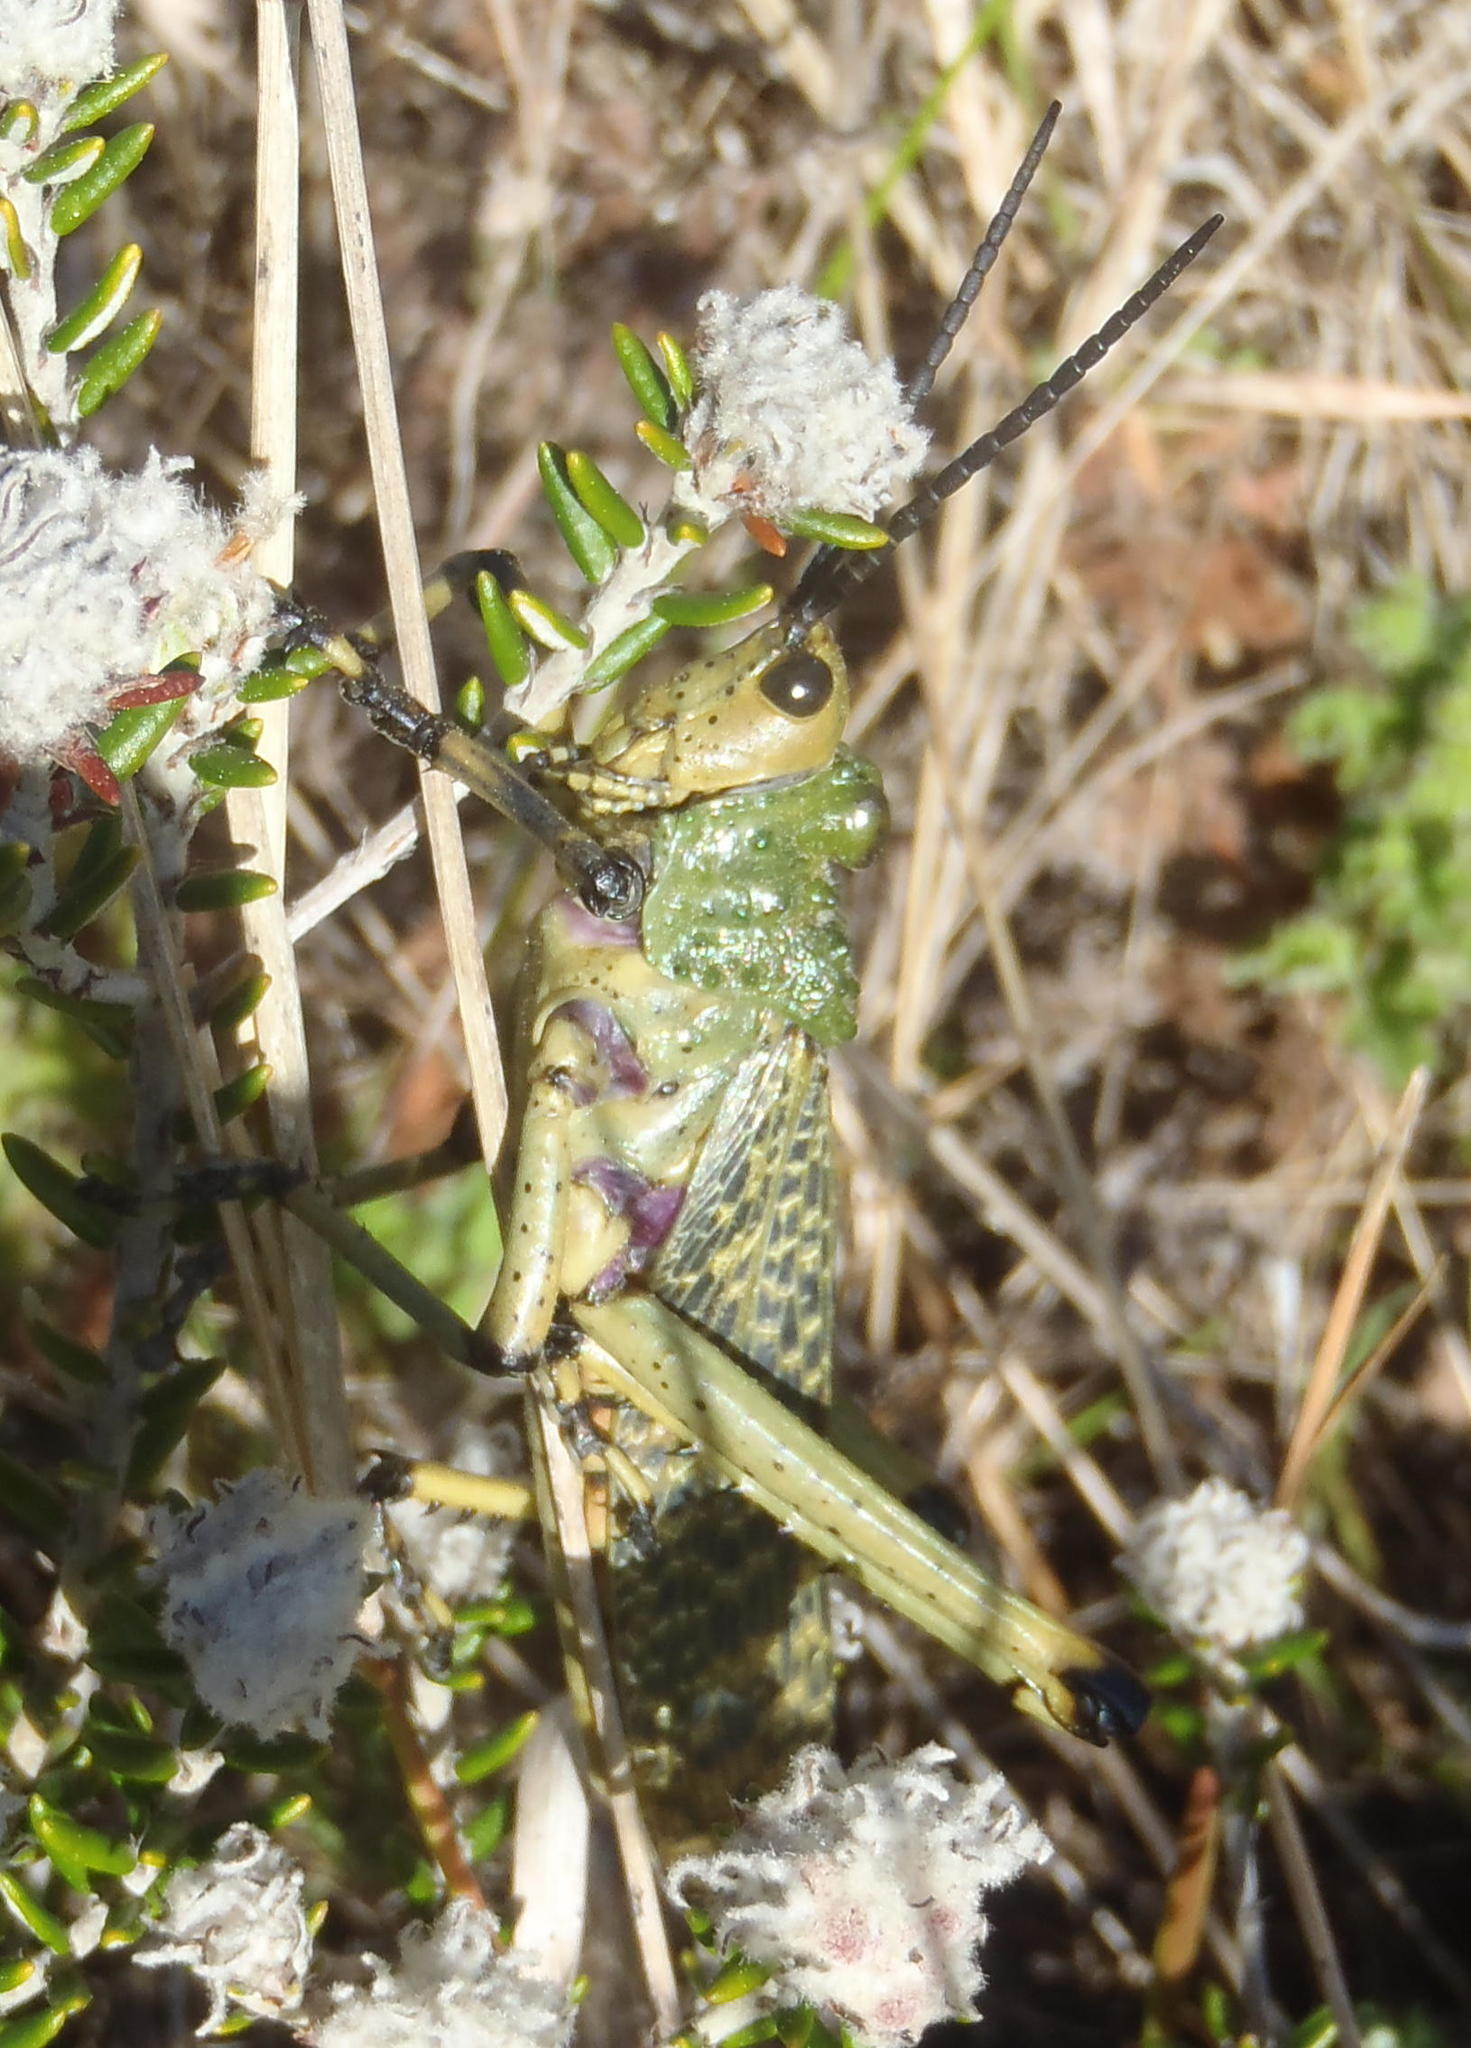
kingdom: Animalia
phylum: Arthropoda
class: Insecta
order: Orthoptera
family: Pyrgomorphidae
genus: Phymateus
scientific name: Phymateus leprosus
